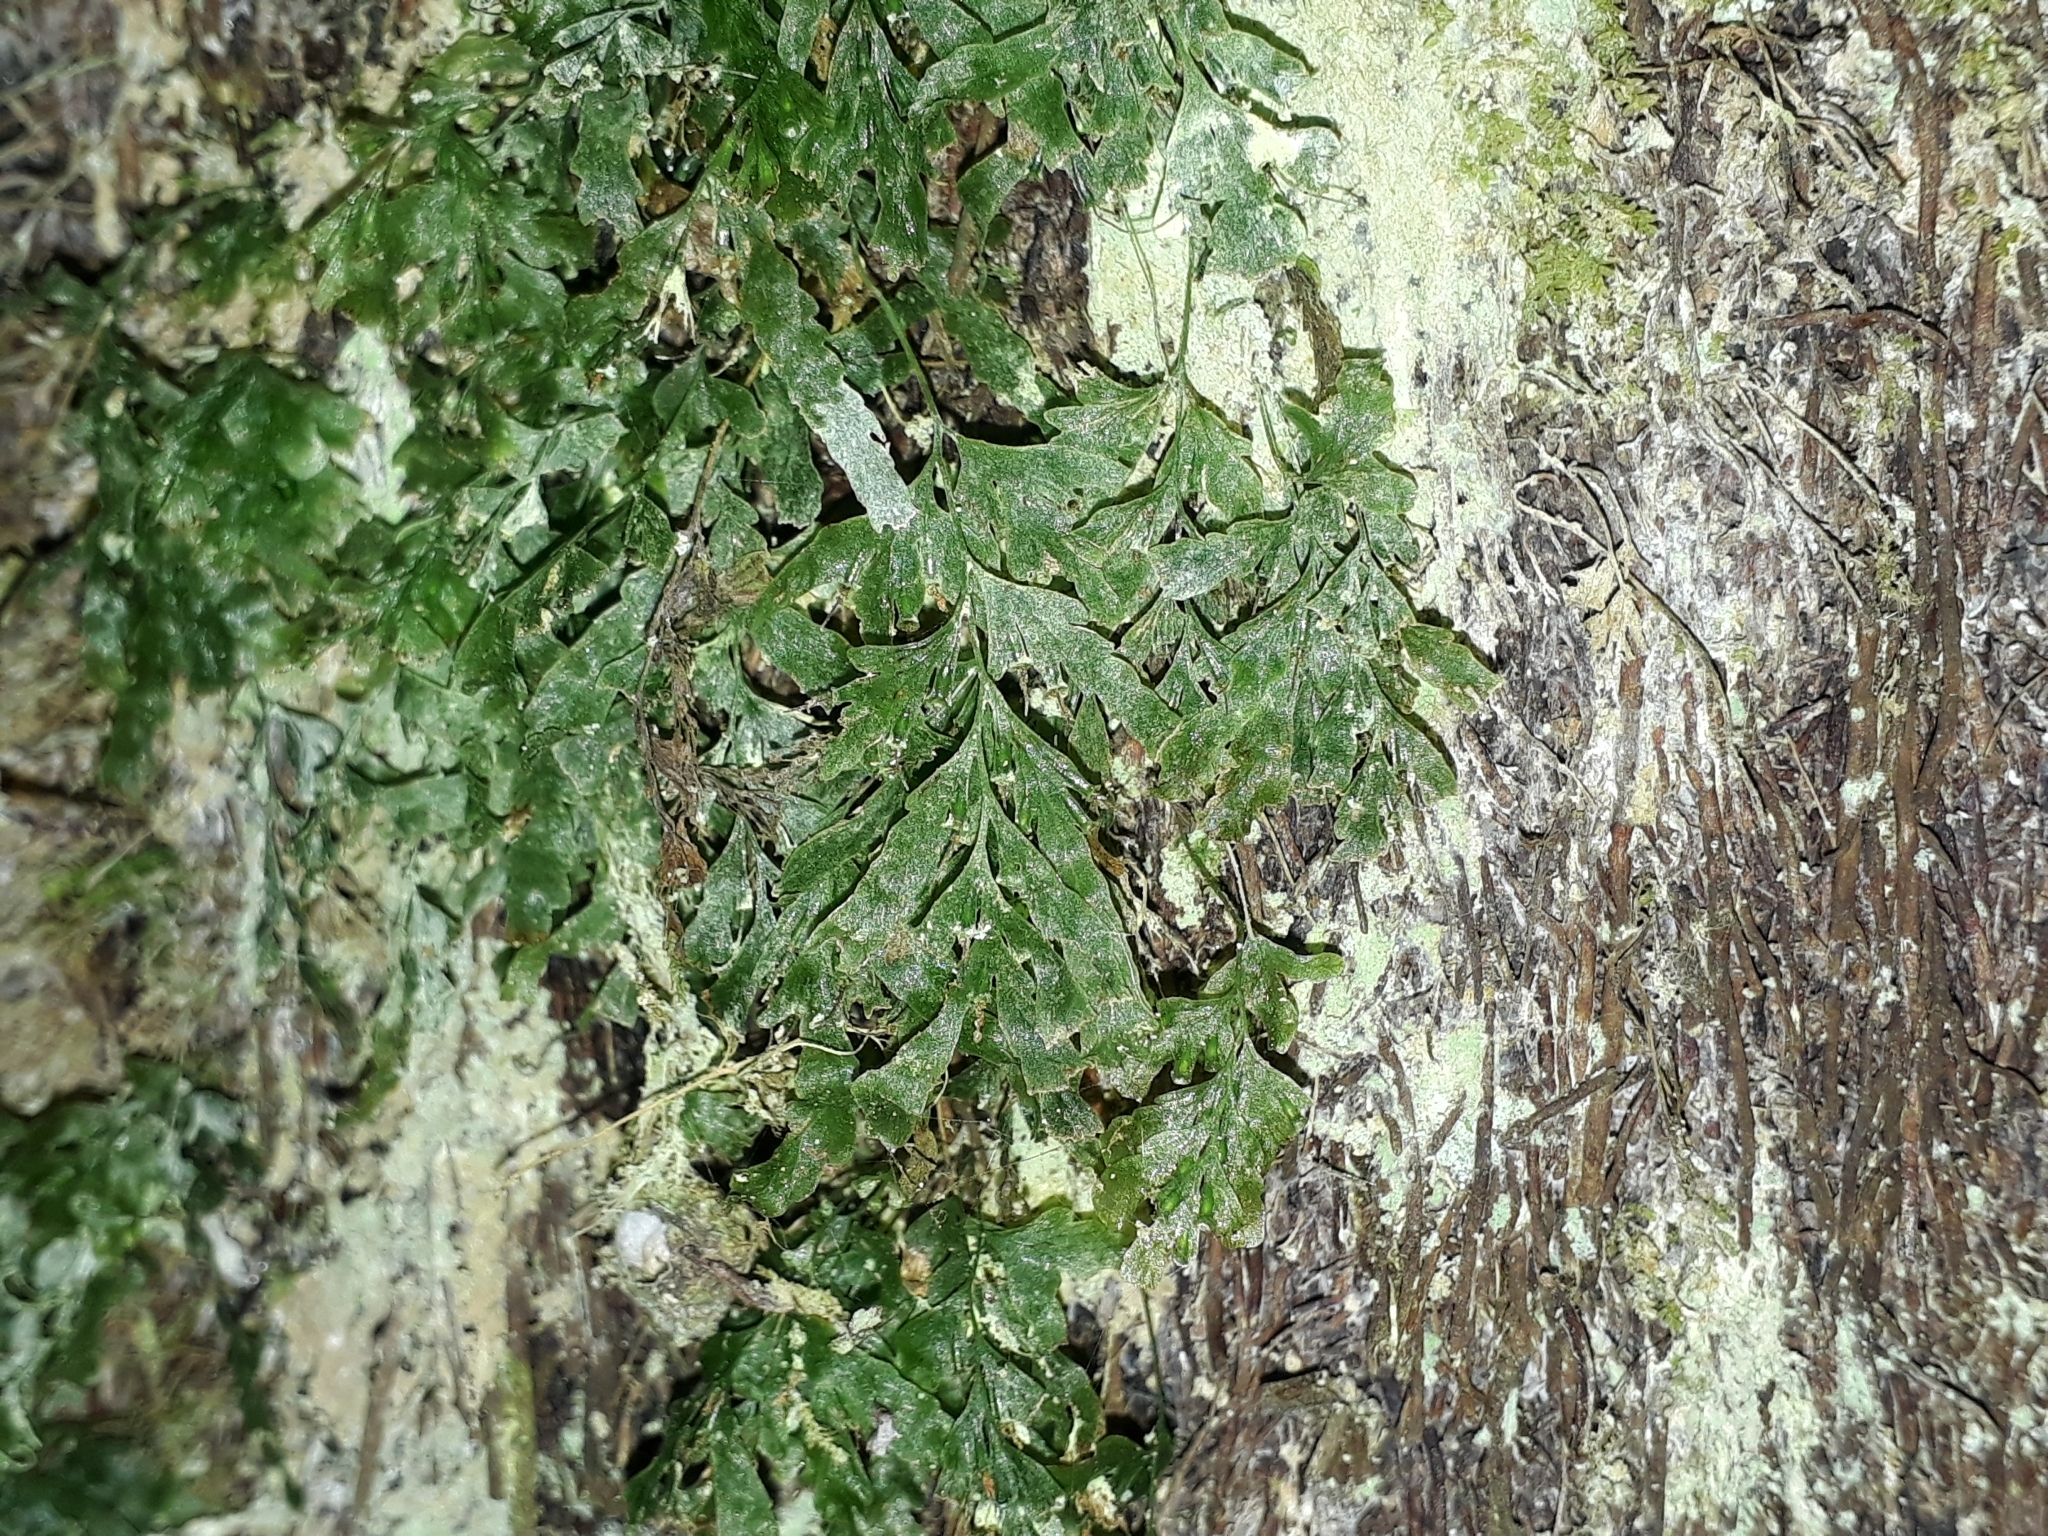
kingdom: Plantae
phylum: Tracheophyta
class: Polypodiopsida
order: Hymenophyllales
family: Hymenophyllaceae
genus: Polyphlebium
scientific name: Polyphlebium venosum
